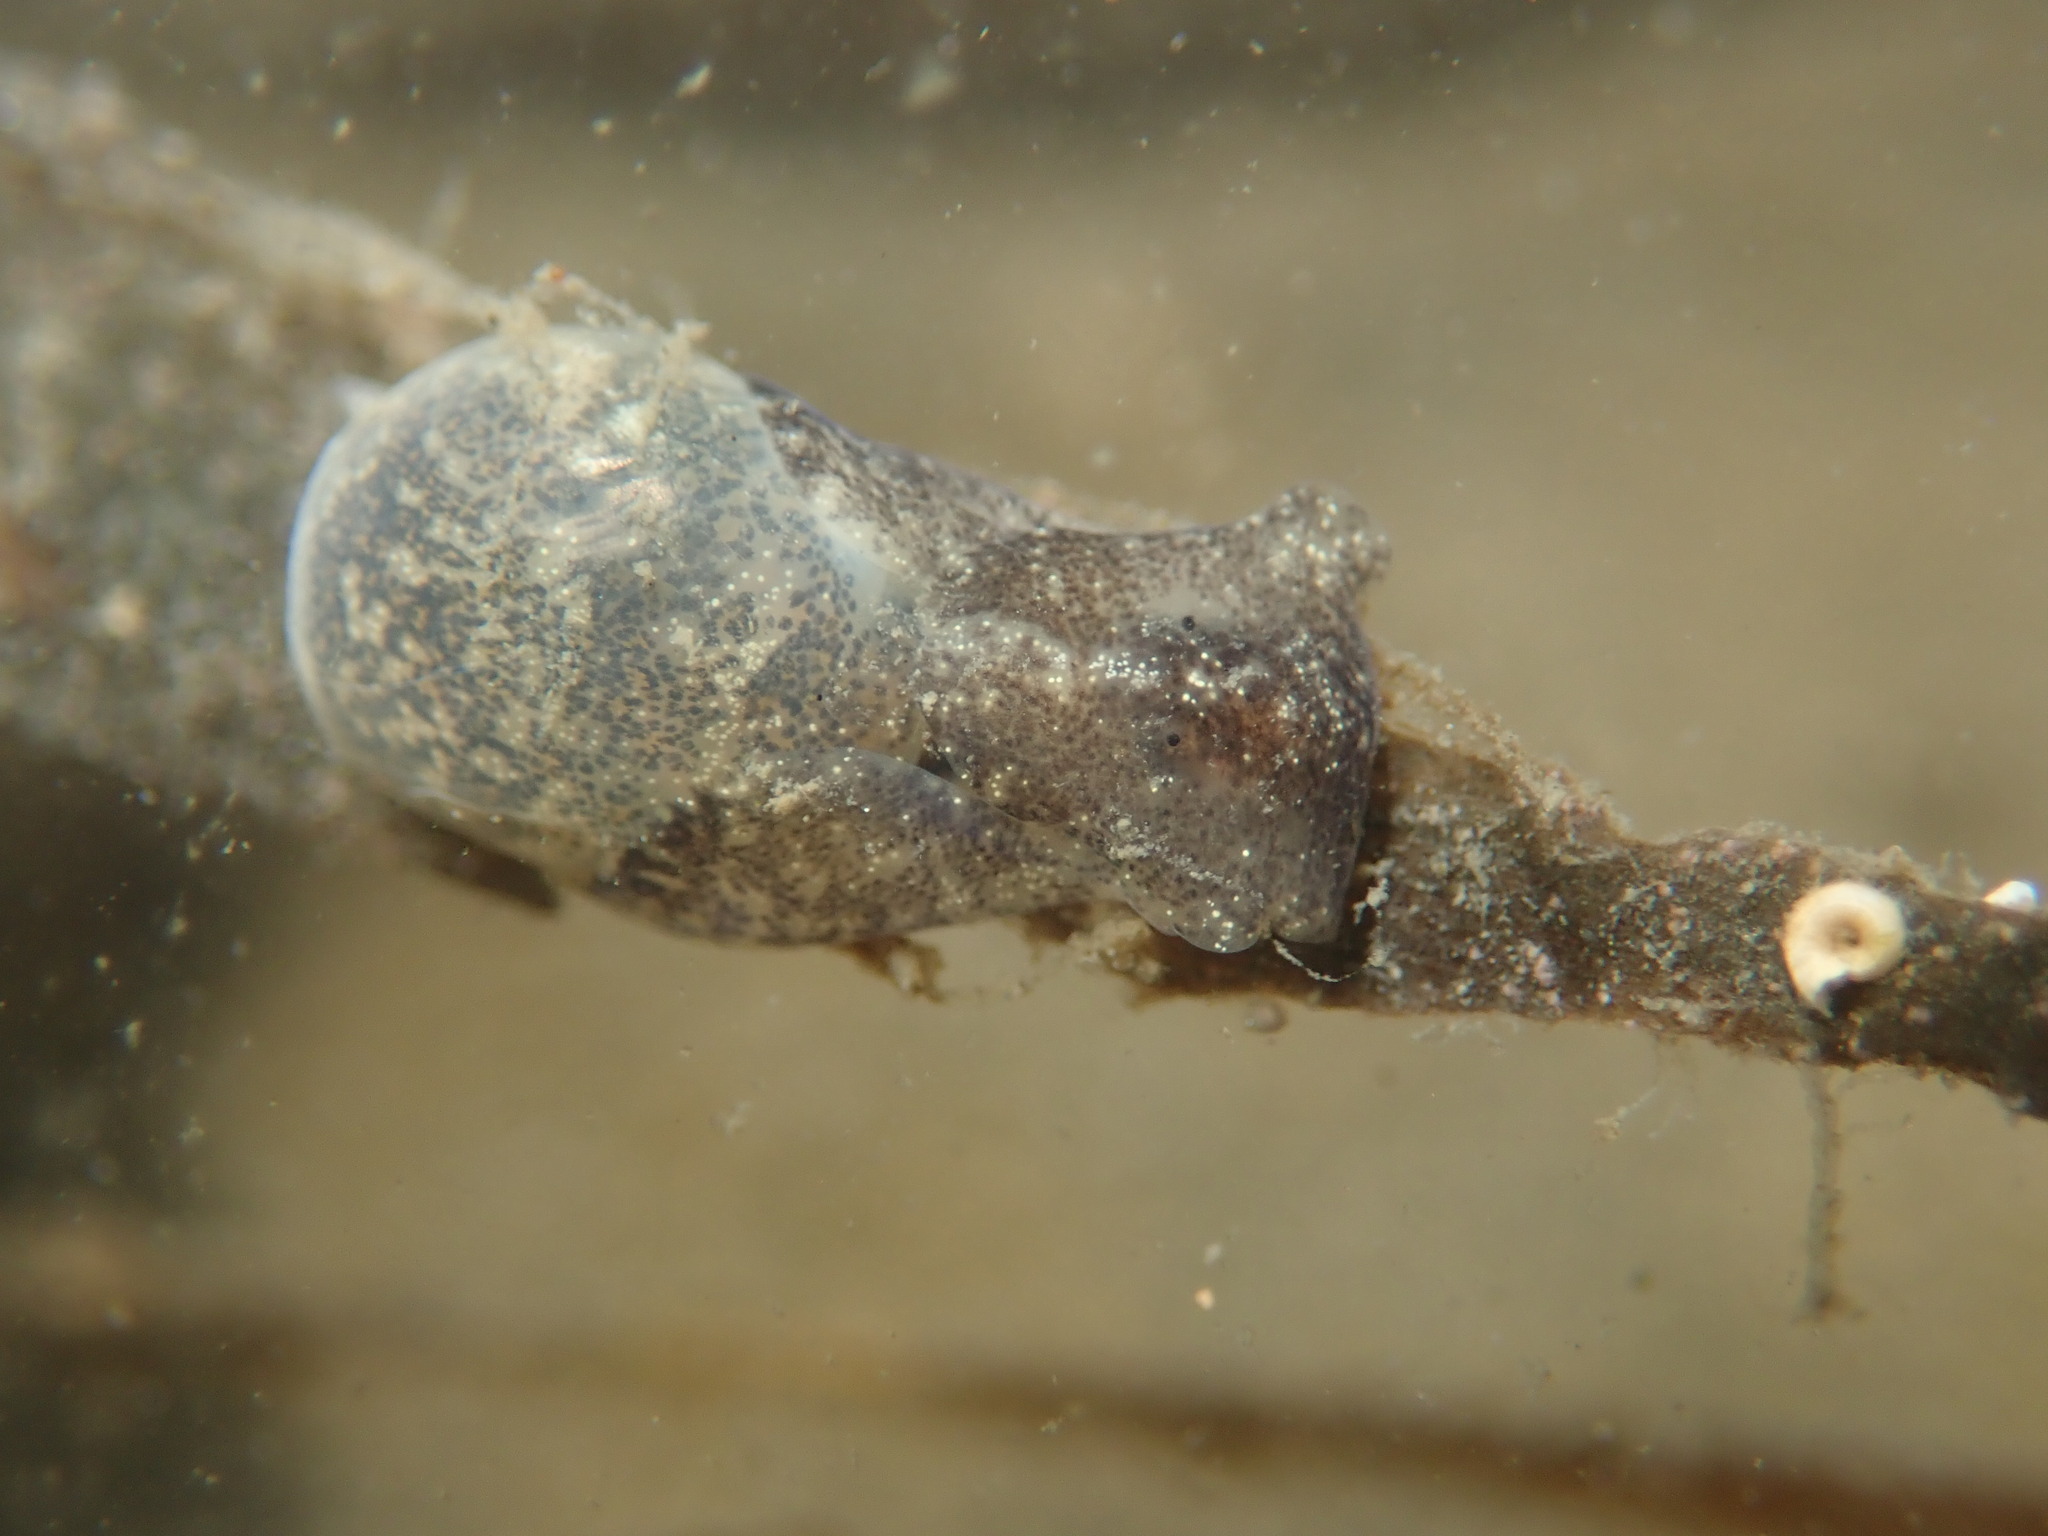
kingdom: Animalia
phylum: Mollusca
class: Gastropoda
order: Cephalaspidea
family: Haminoeidae
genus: Haminoea
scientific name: Haminoea vesicula
